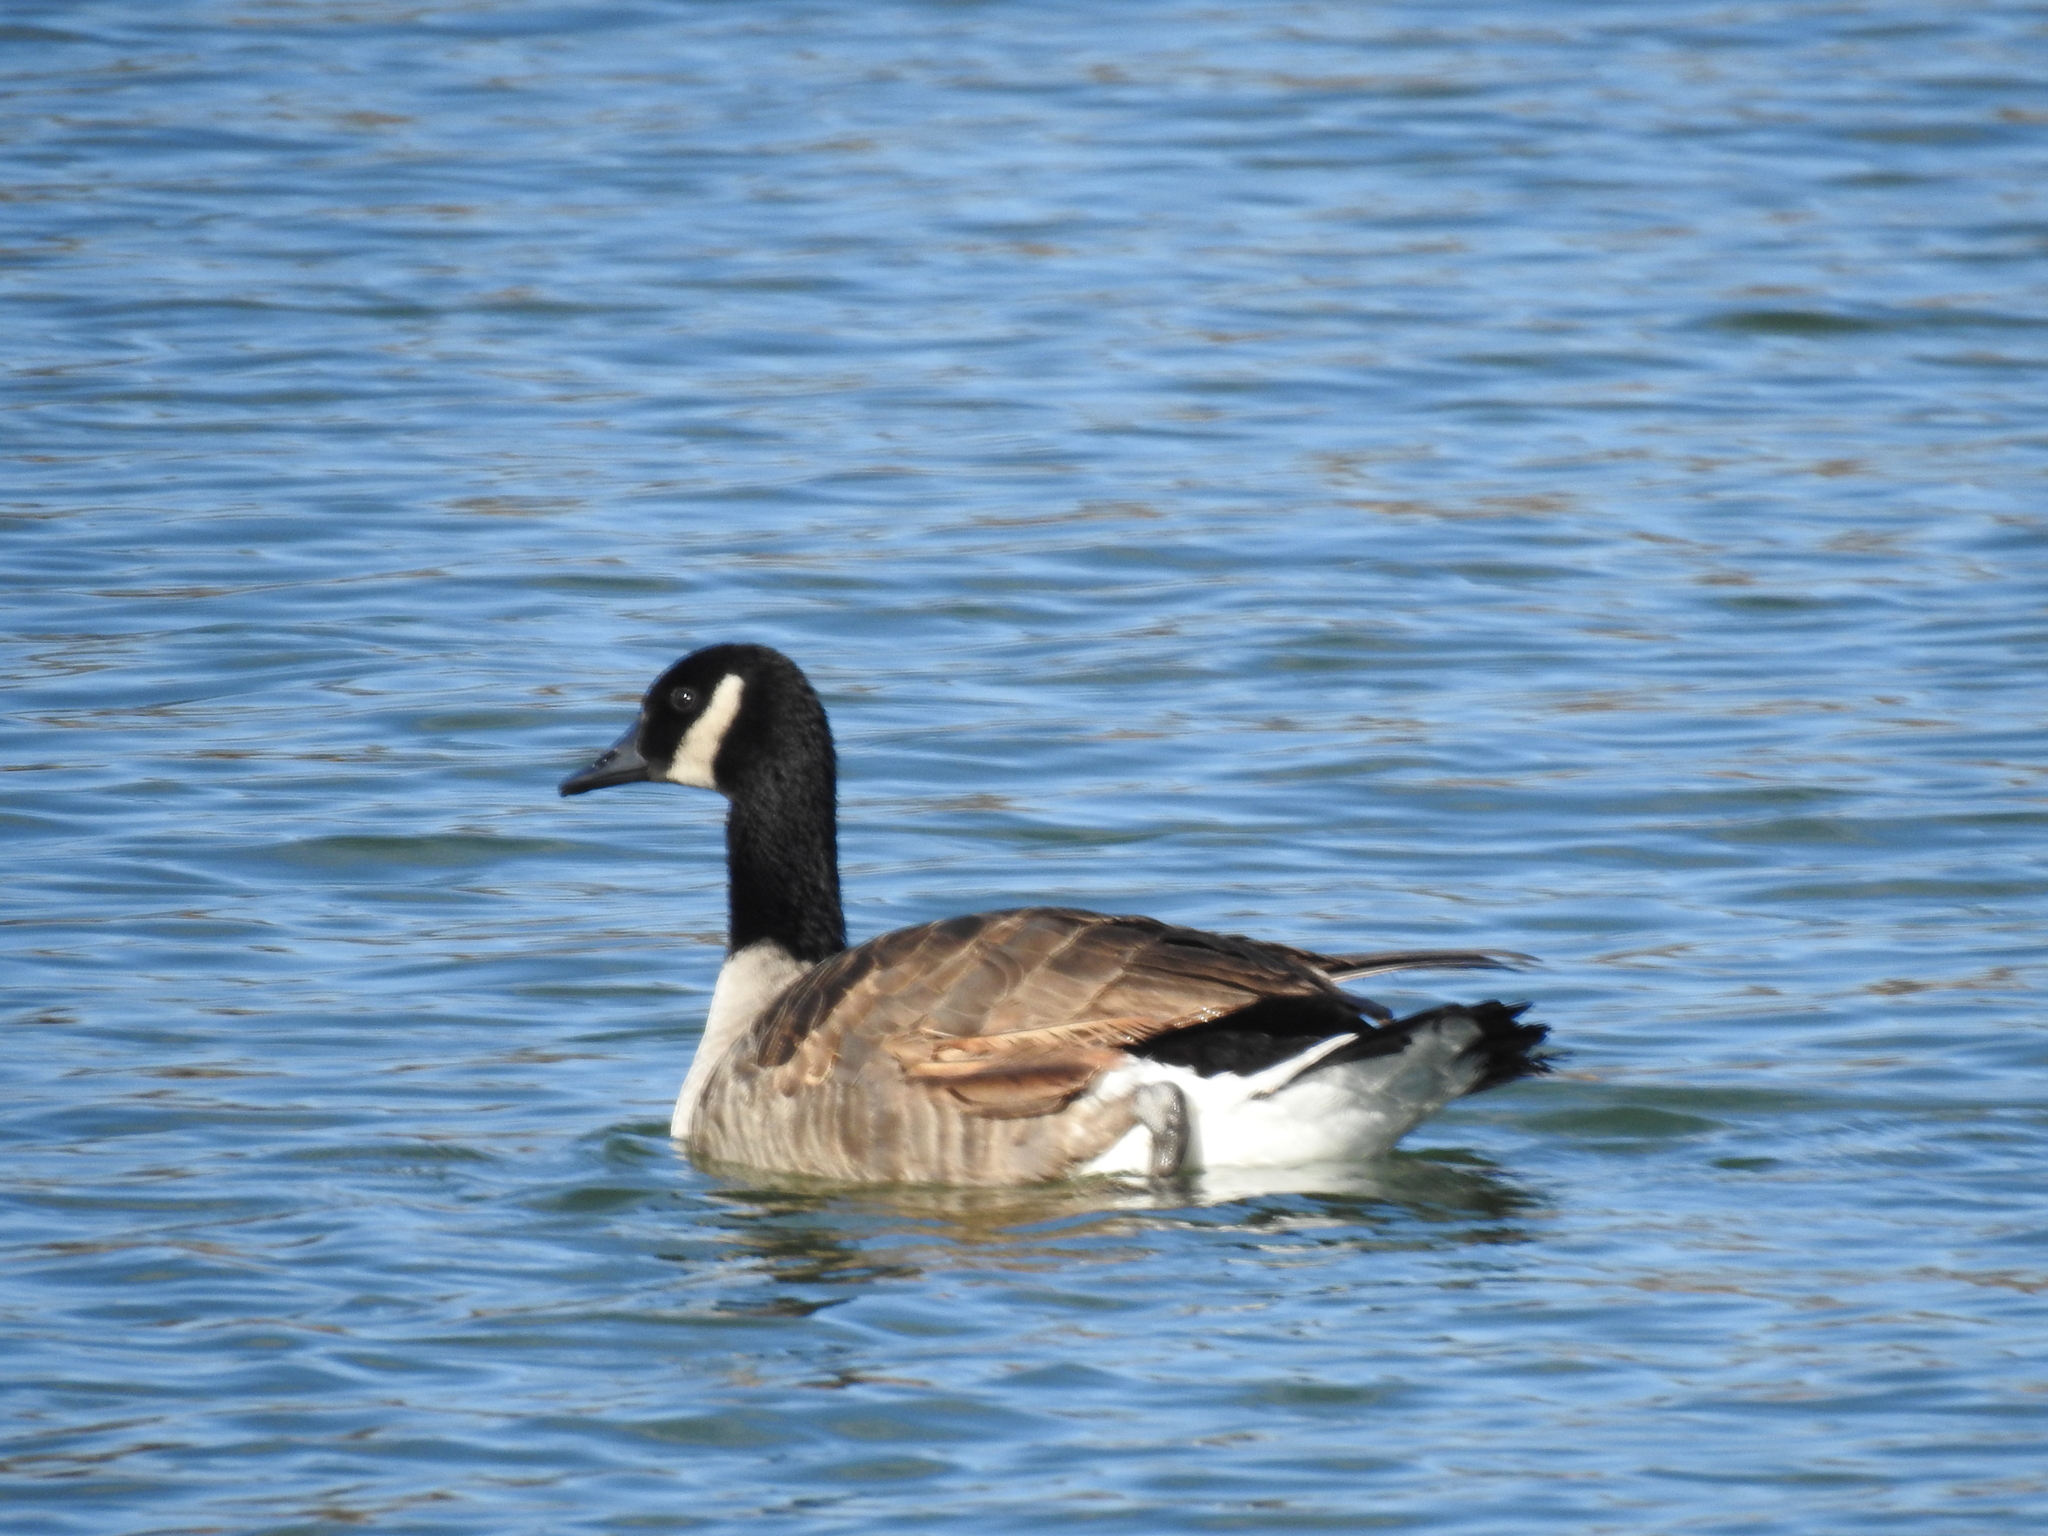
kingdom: Animalia
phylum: Chordata
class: Aves
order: Anseriformes
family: Anatidae
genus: Branta
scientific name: Branta canadensis
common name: Canada goose
